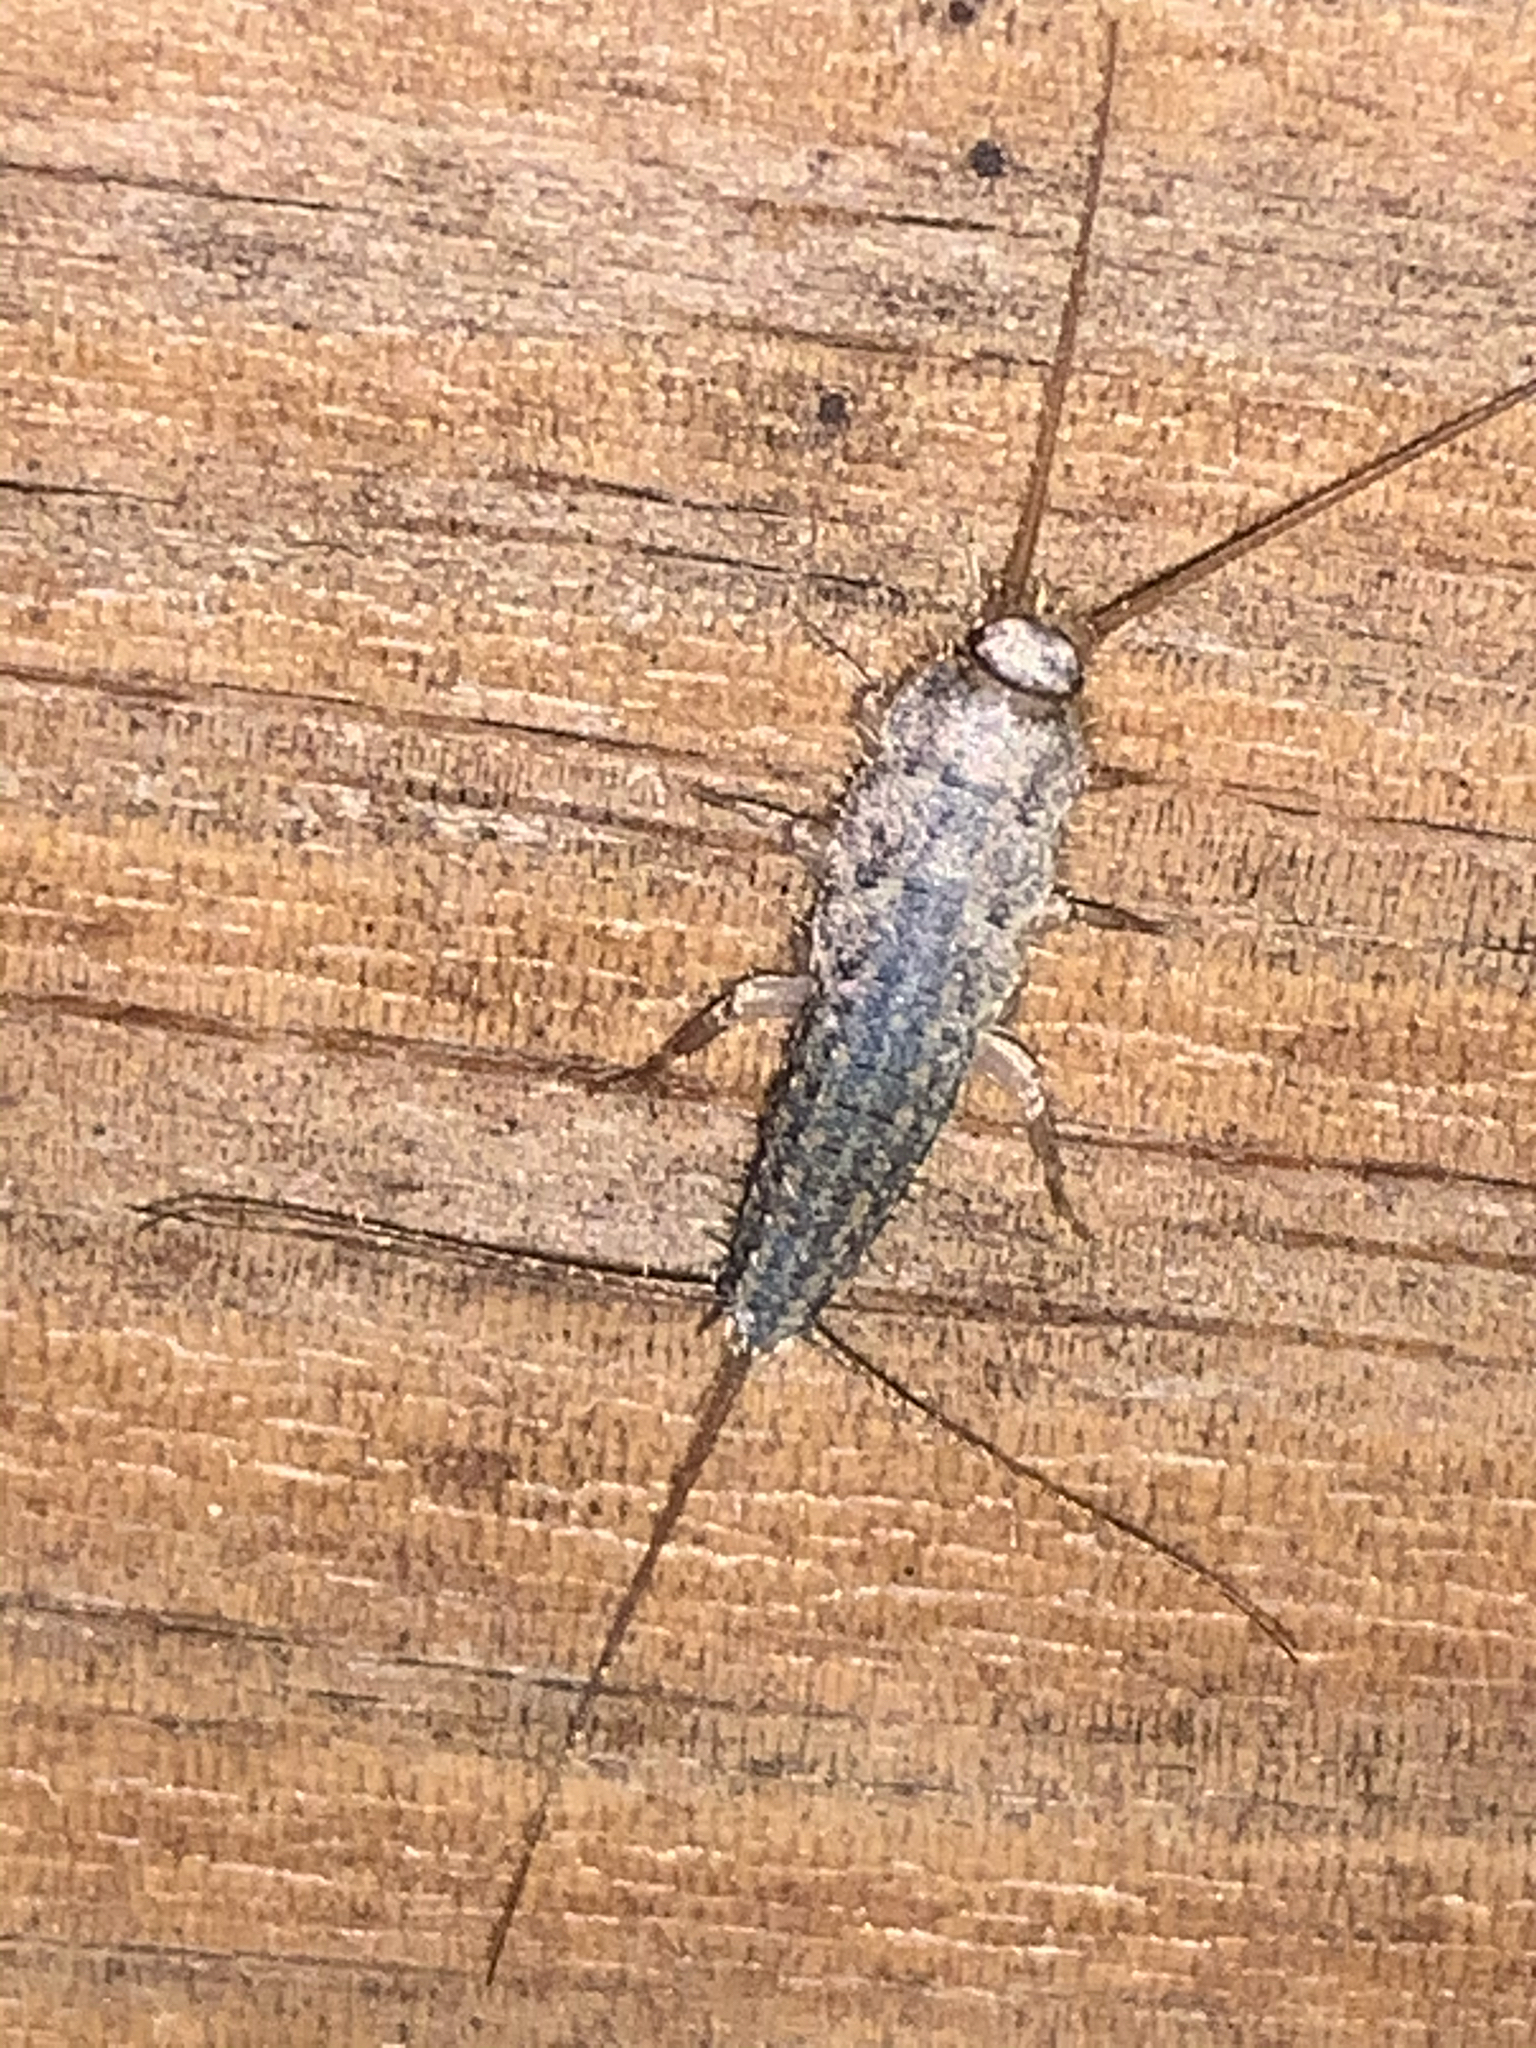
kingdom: Animalia
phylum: Arthropoda
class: Insecta
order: Zygentoma
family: Lepismatidae
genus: Ctenolepisma
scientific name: Ctenolepisma lineata
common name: Four-lined silverfish
